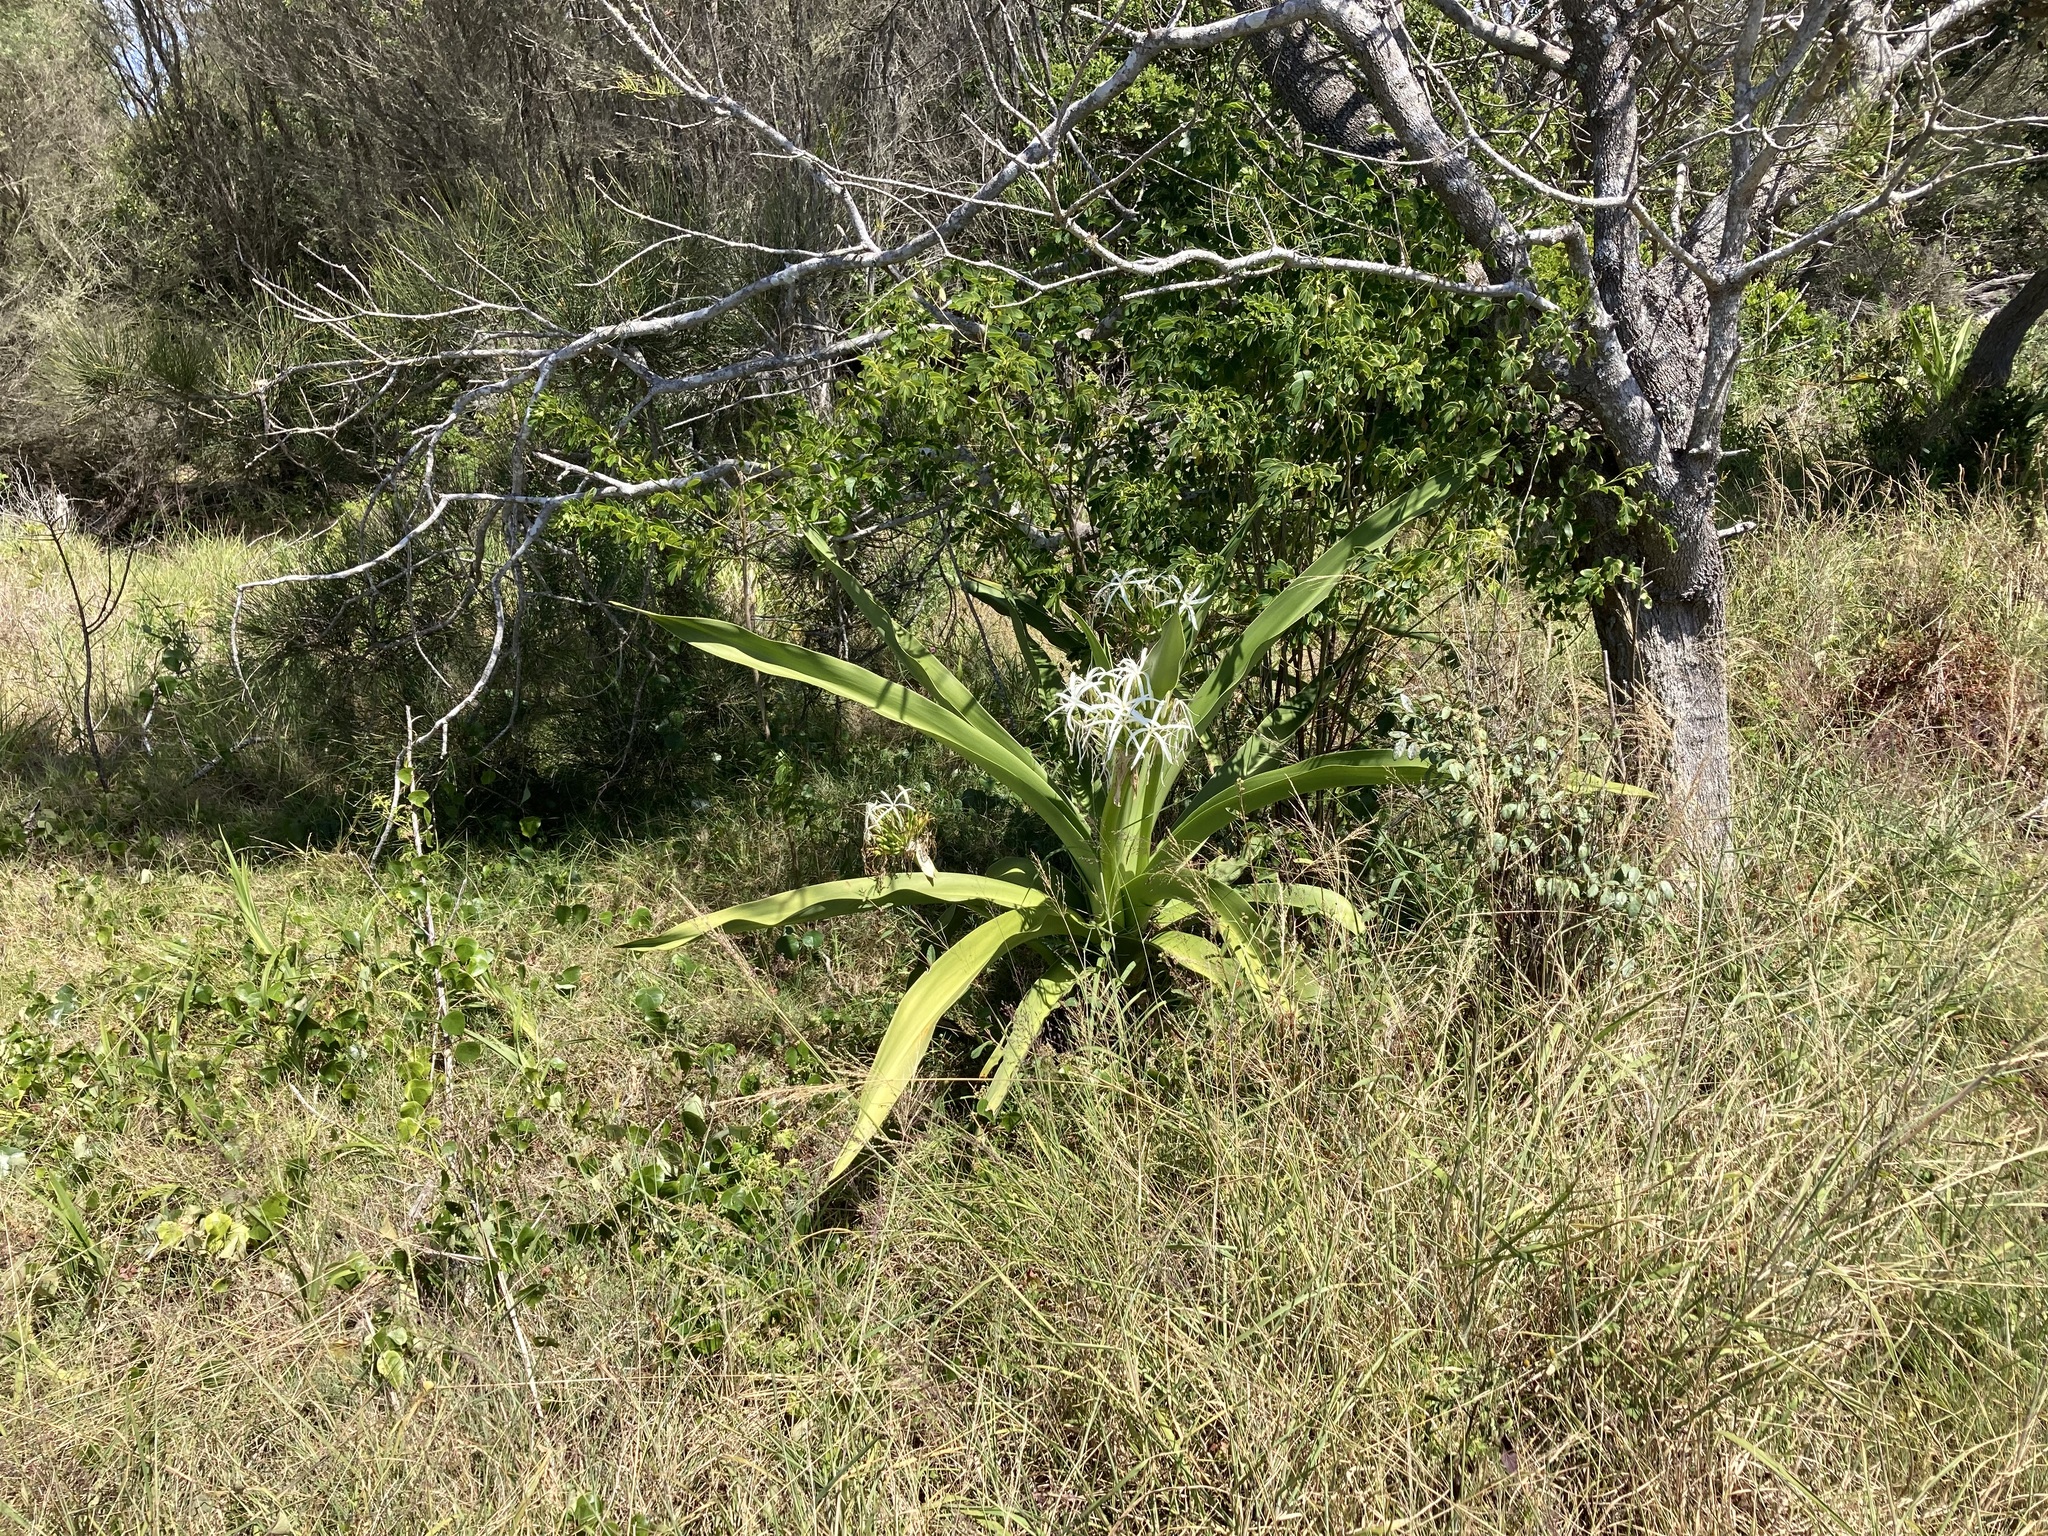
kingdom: Plantae
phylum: Tracheophyta
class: Liliopsida
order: Asparagales
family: Amaryllidaceae
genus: Crinum
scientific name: Crinum pedunculatum
